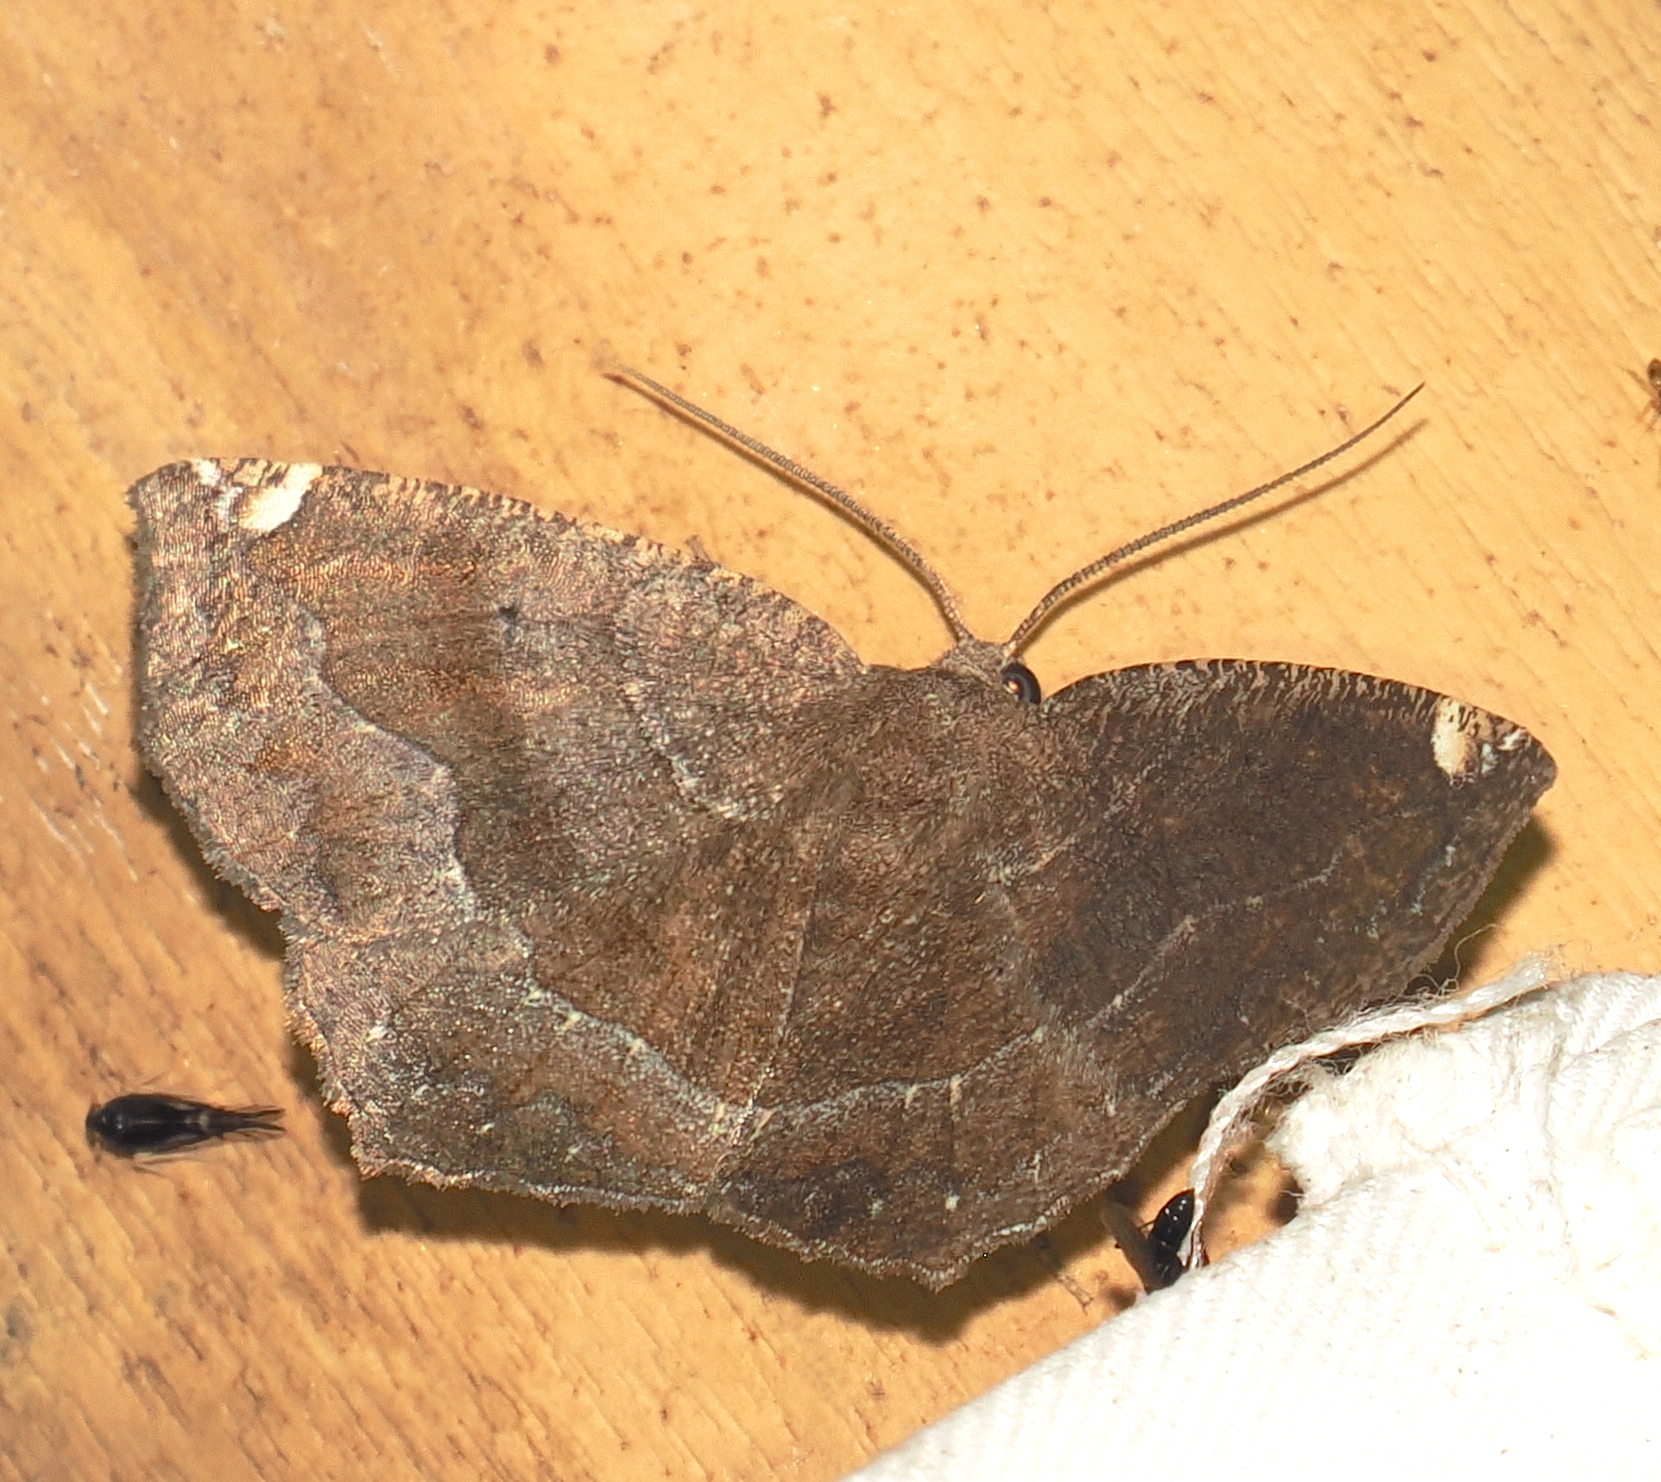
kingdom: Animalia
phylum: Arthropoda
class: Insecta
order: Lepidoptera
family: Geometridae
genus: Anisoperas
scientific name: Anisoperas atropunctaria
